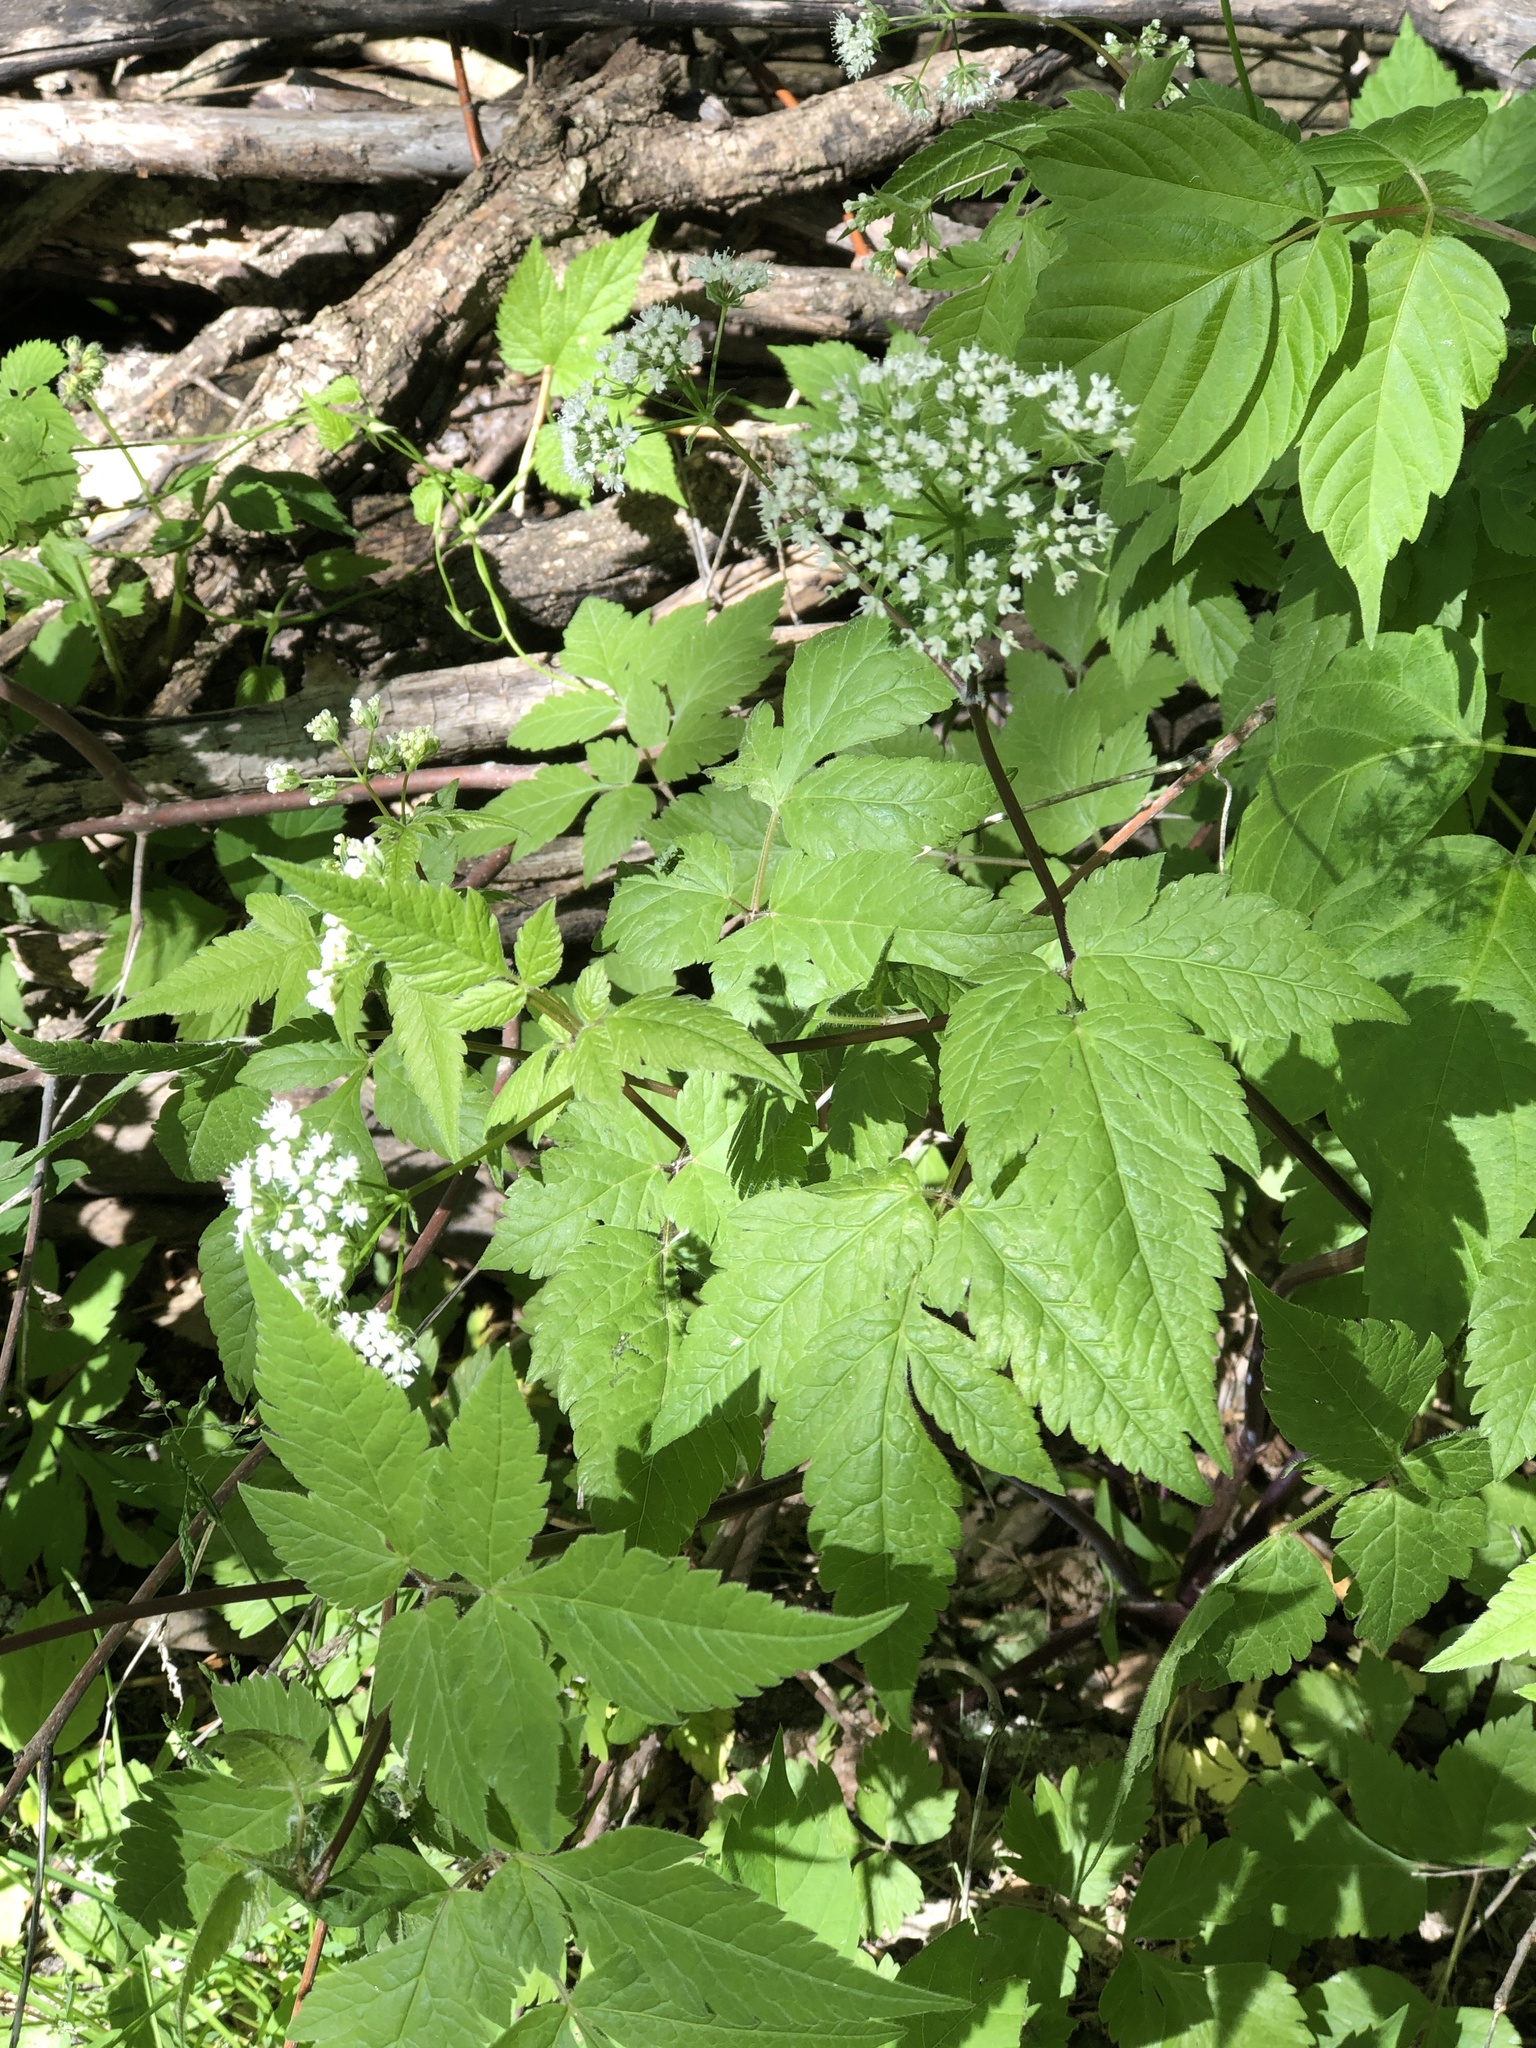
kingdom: Plantae
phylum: Tracheophyta
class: Magnoliopsida
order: Apiales
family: Apiaceae
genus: Osmorhiza
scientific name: Osmorhiza longistylis
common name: Smooth sweet cicely
